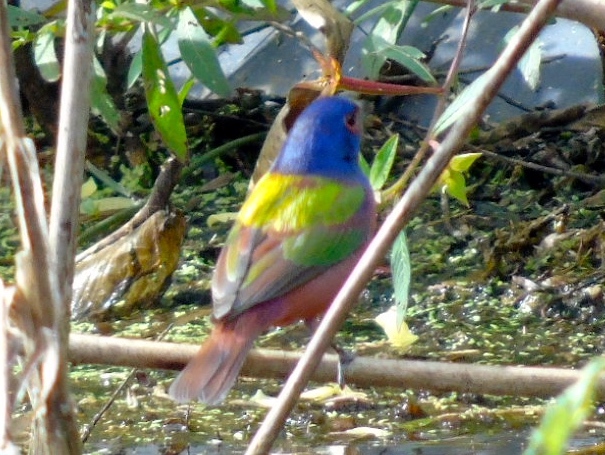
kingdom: Animalia
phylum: Chordata
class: Aves
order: Passeriformes
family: Cardinalidae
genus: Passerina
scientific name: Passerina ciris
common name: Painted bunting
